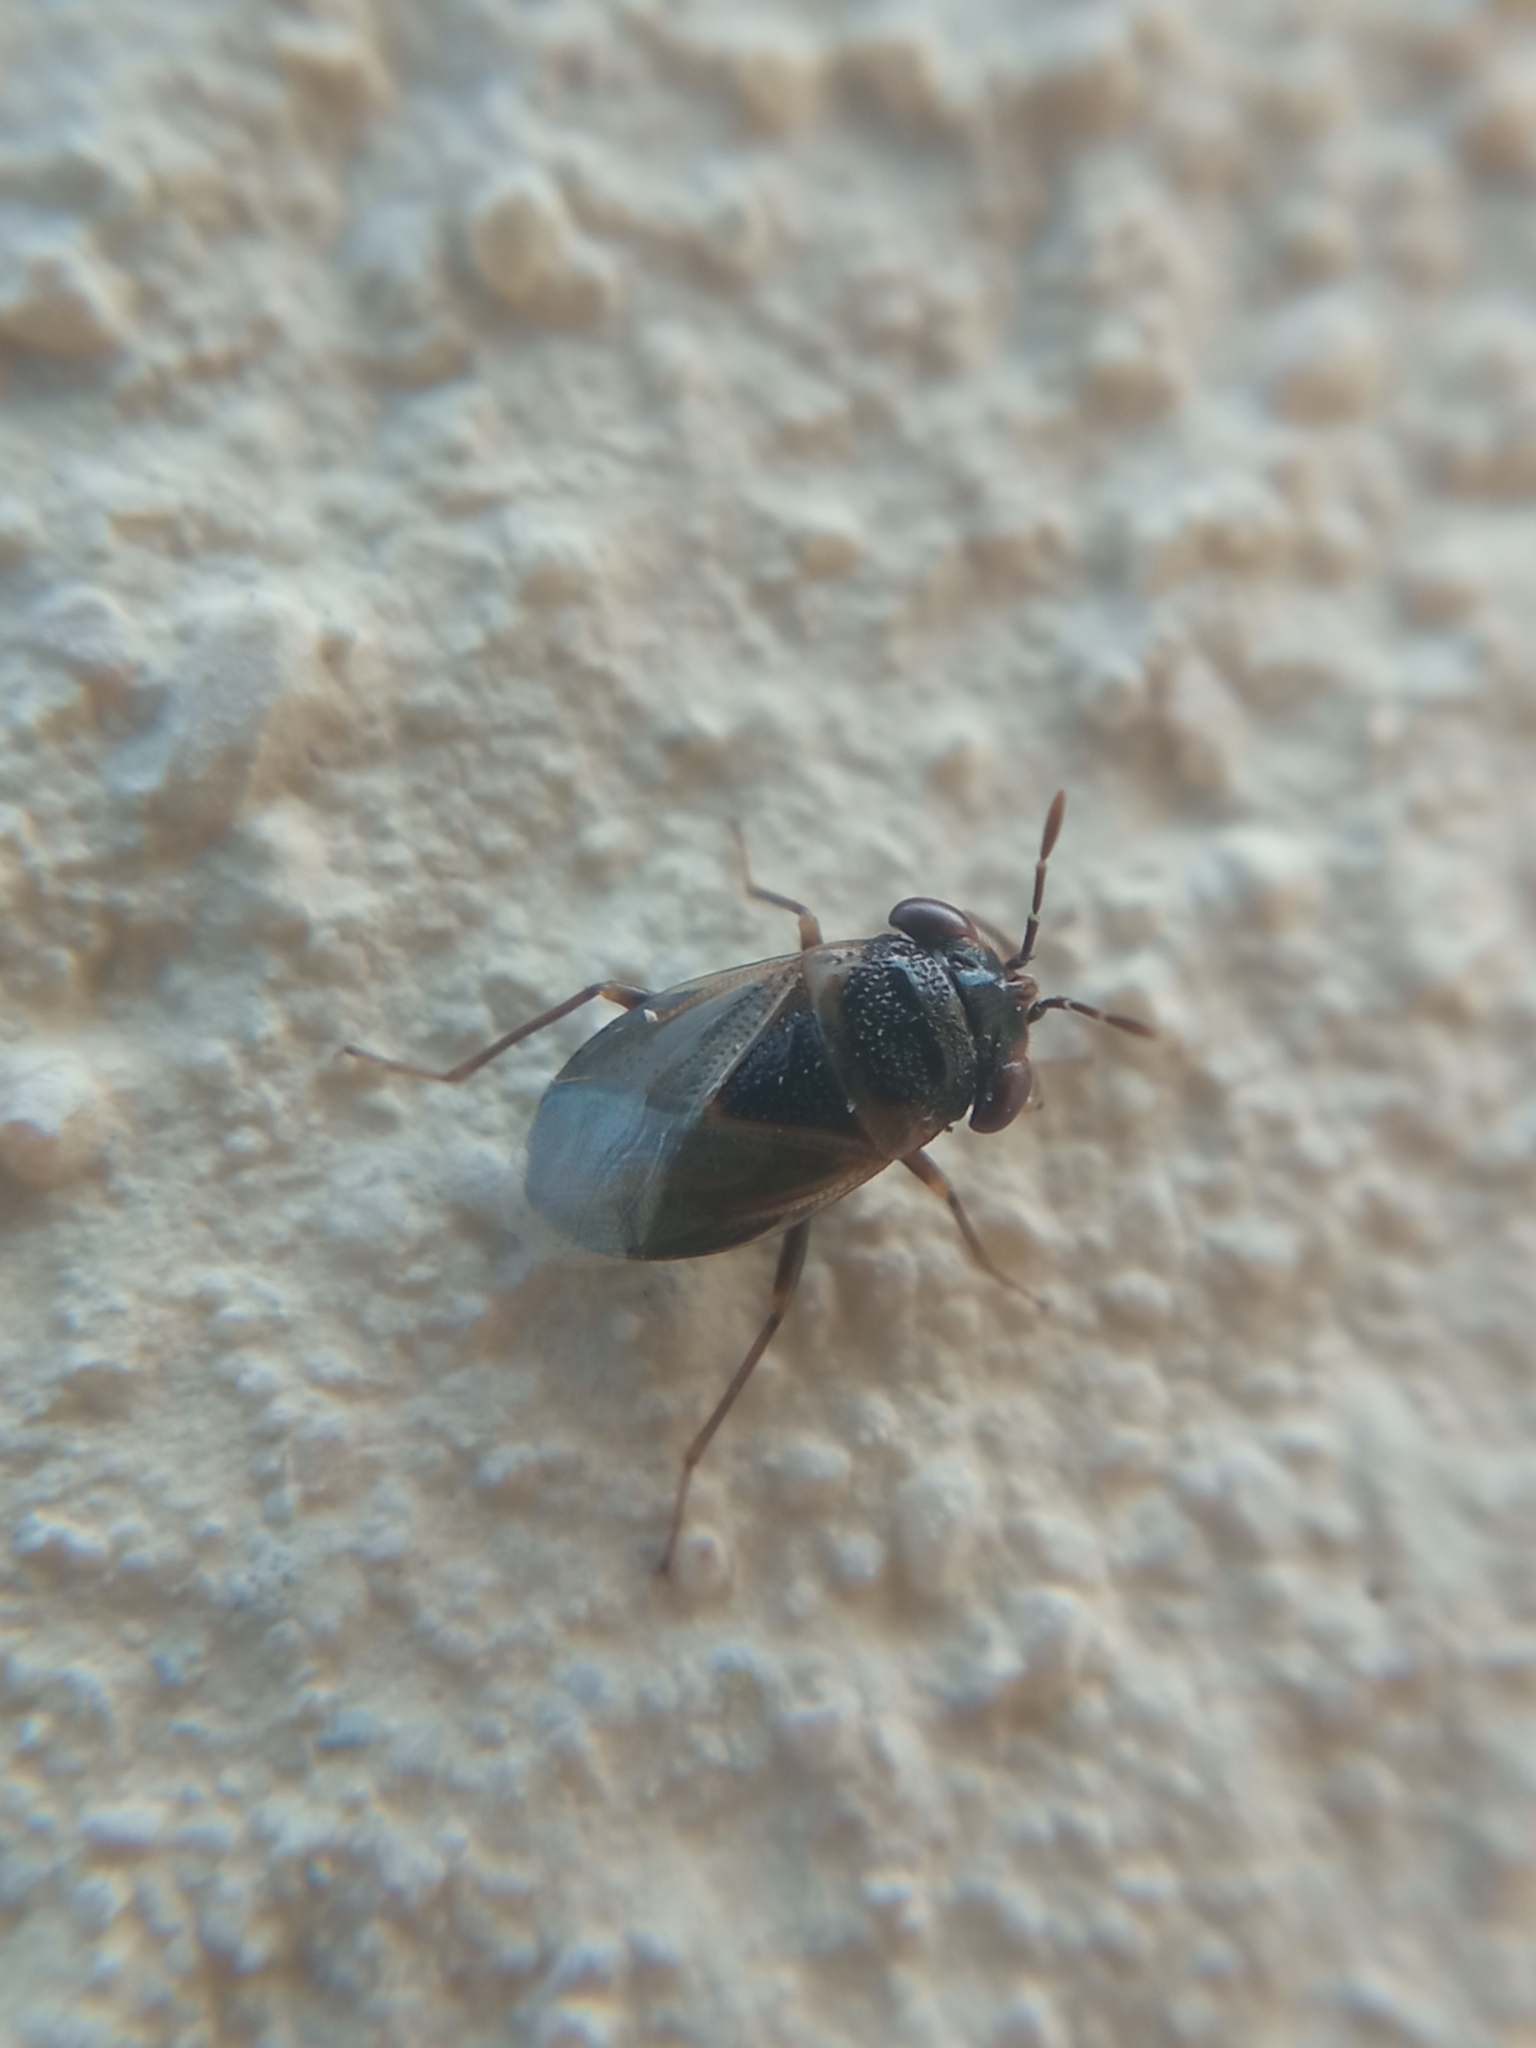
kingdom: Animalia
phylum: Arthropoda
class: Insecta
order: Hemiptera
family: Geocoridae
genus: Geocoris
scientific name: Geocoris megacephalus
